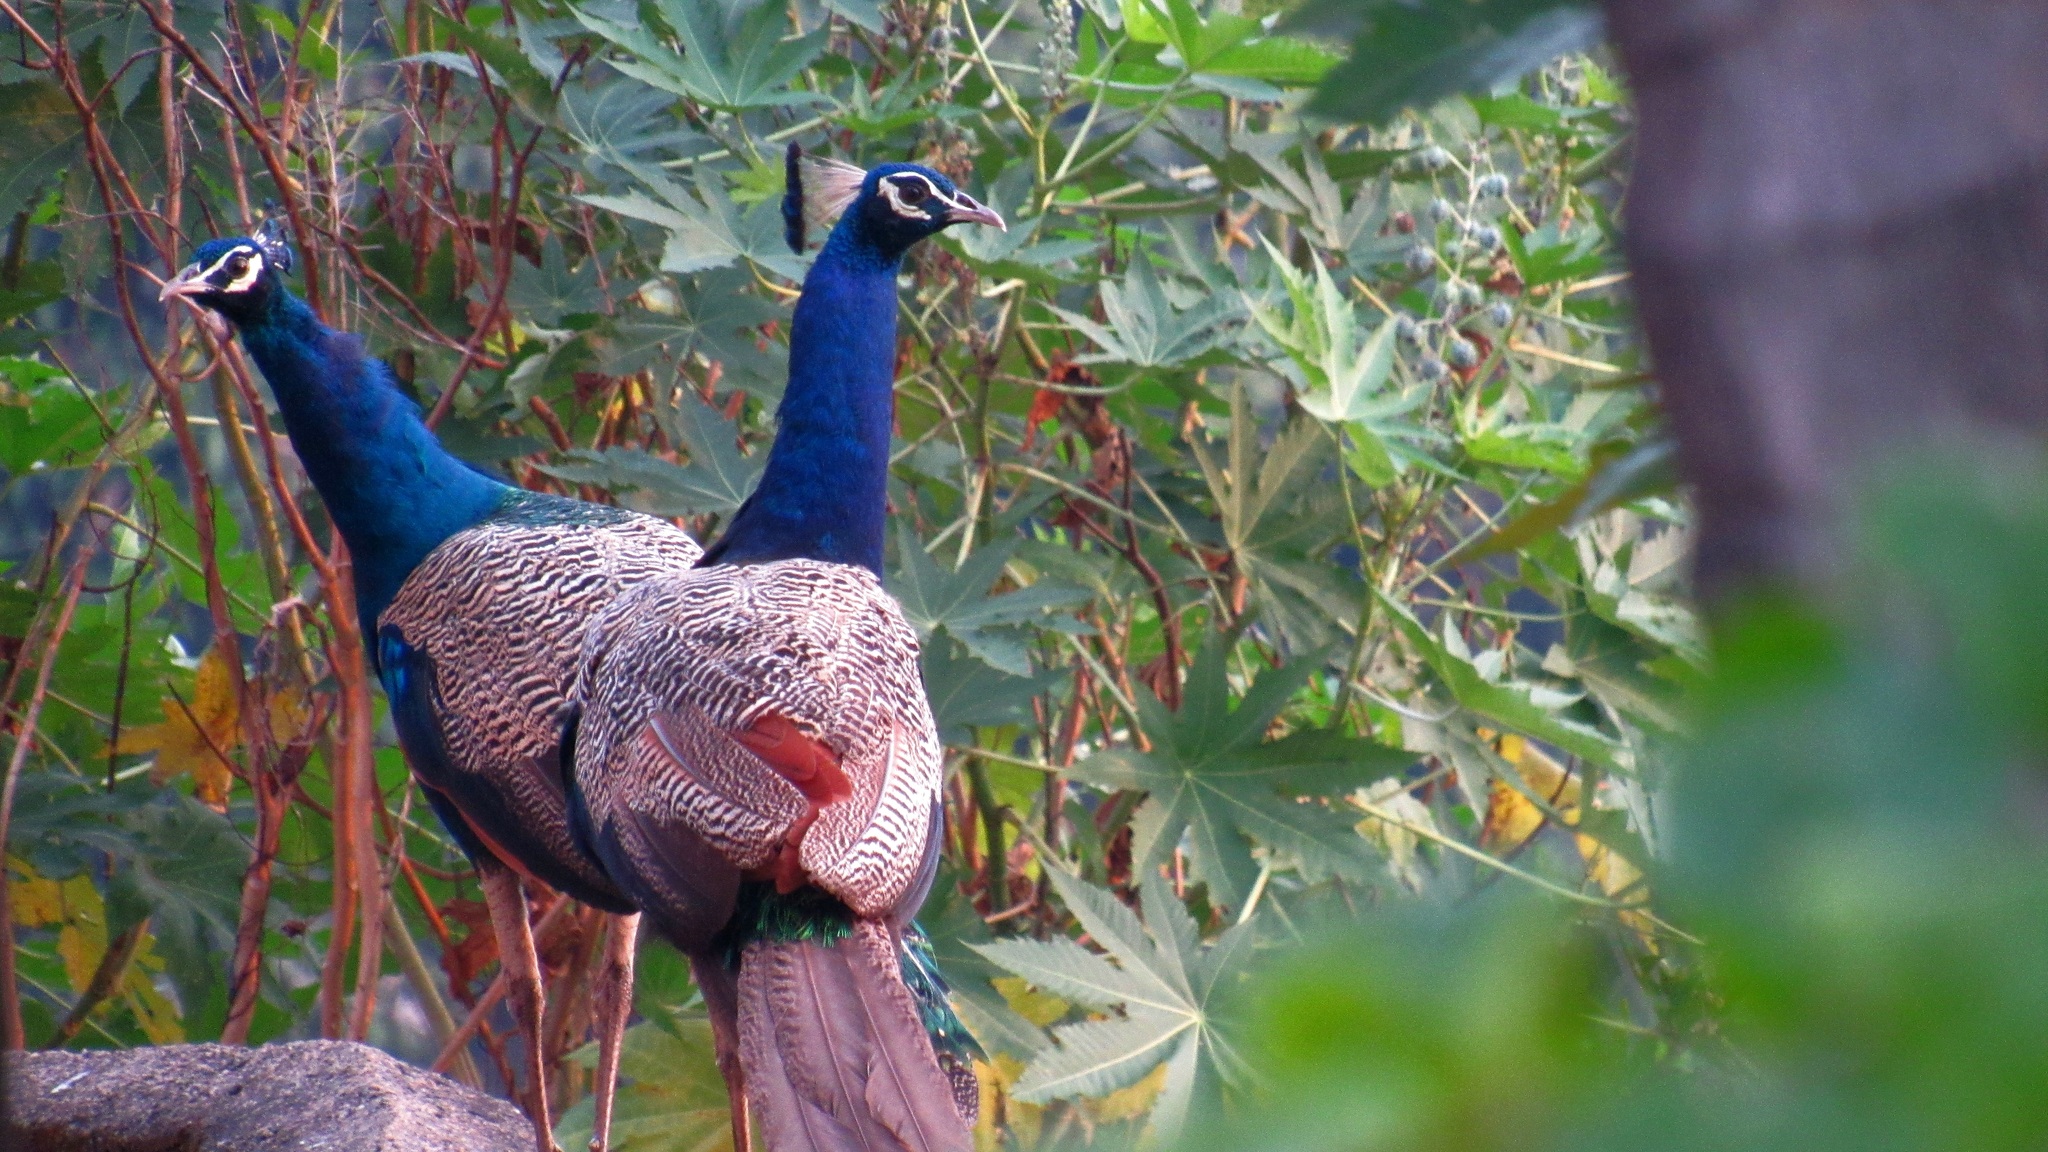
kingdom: Animalia
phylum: Chordata
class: Aves
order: Galliformes
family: Phasianidae
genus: Pavo
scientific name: Pavo cristatus
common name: Indian peafowl
